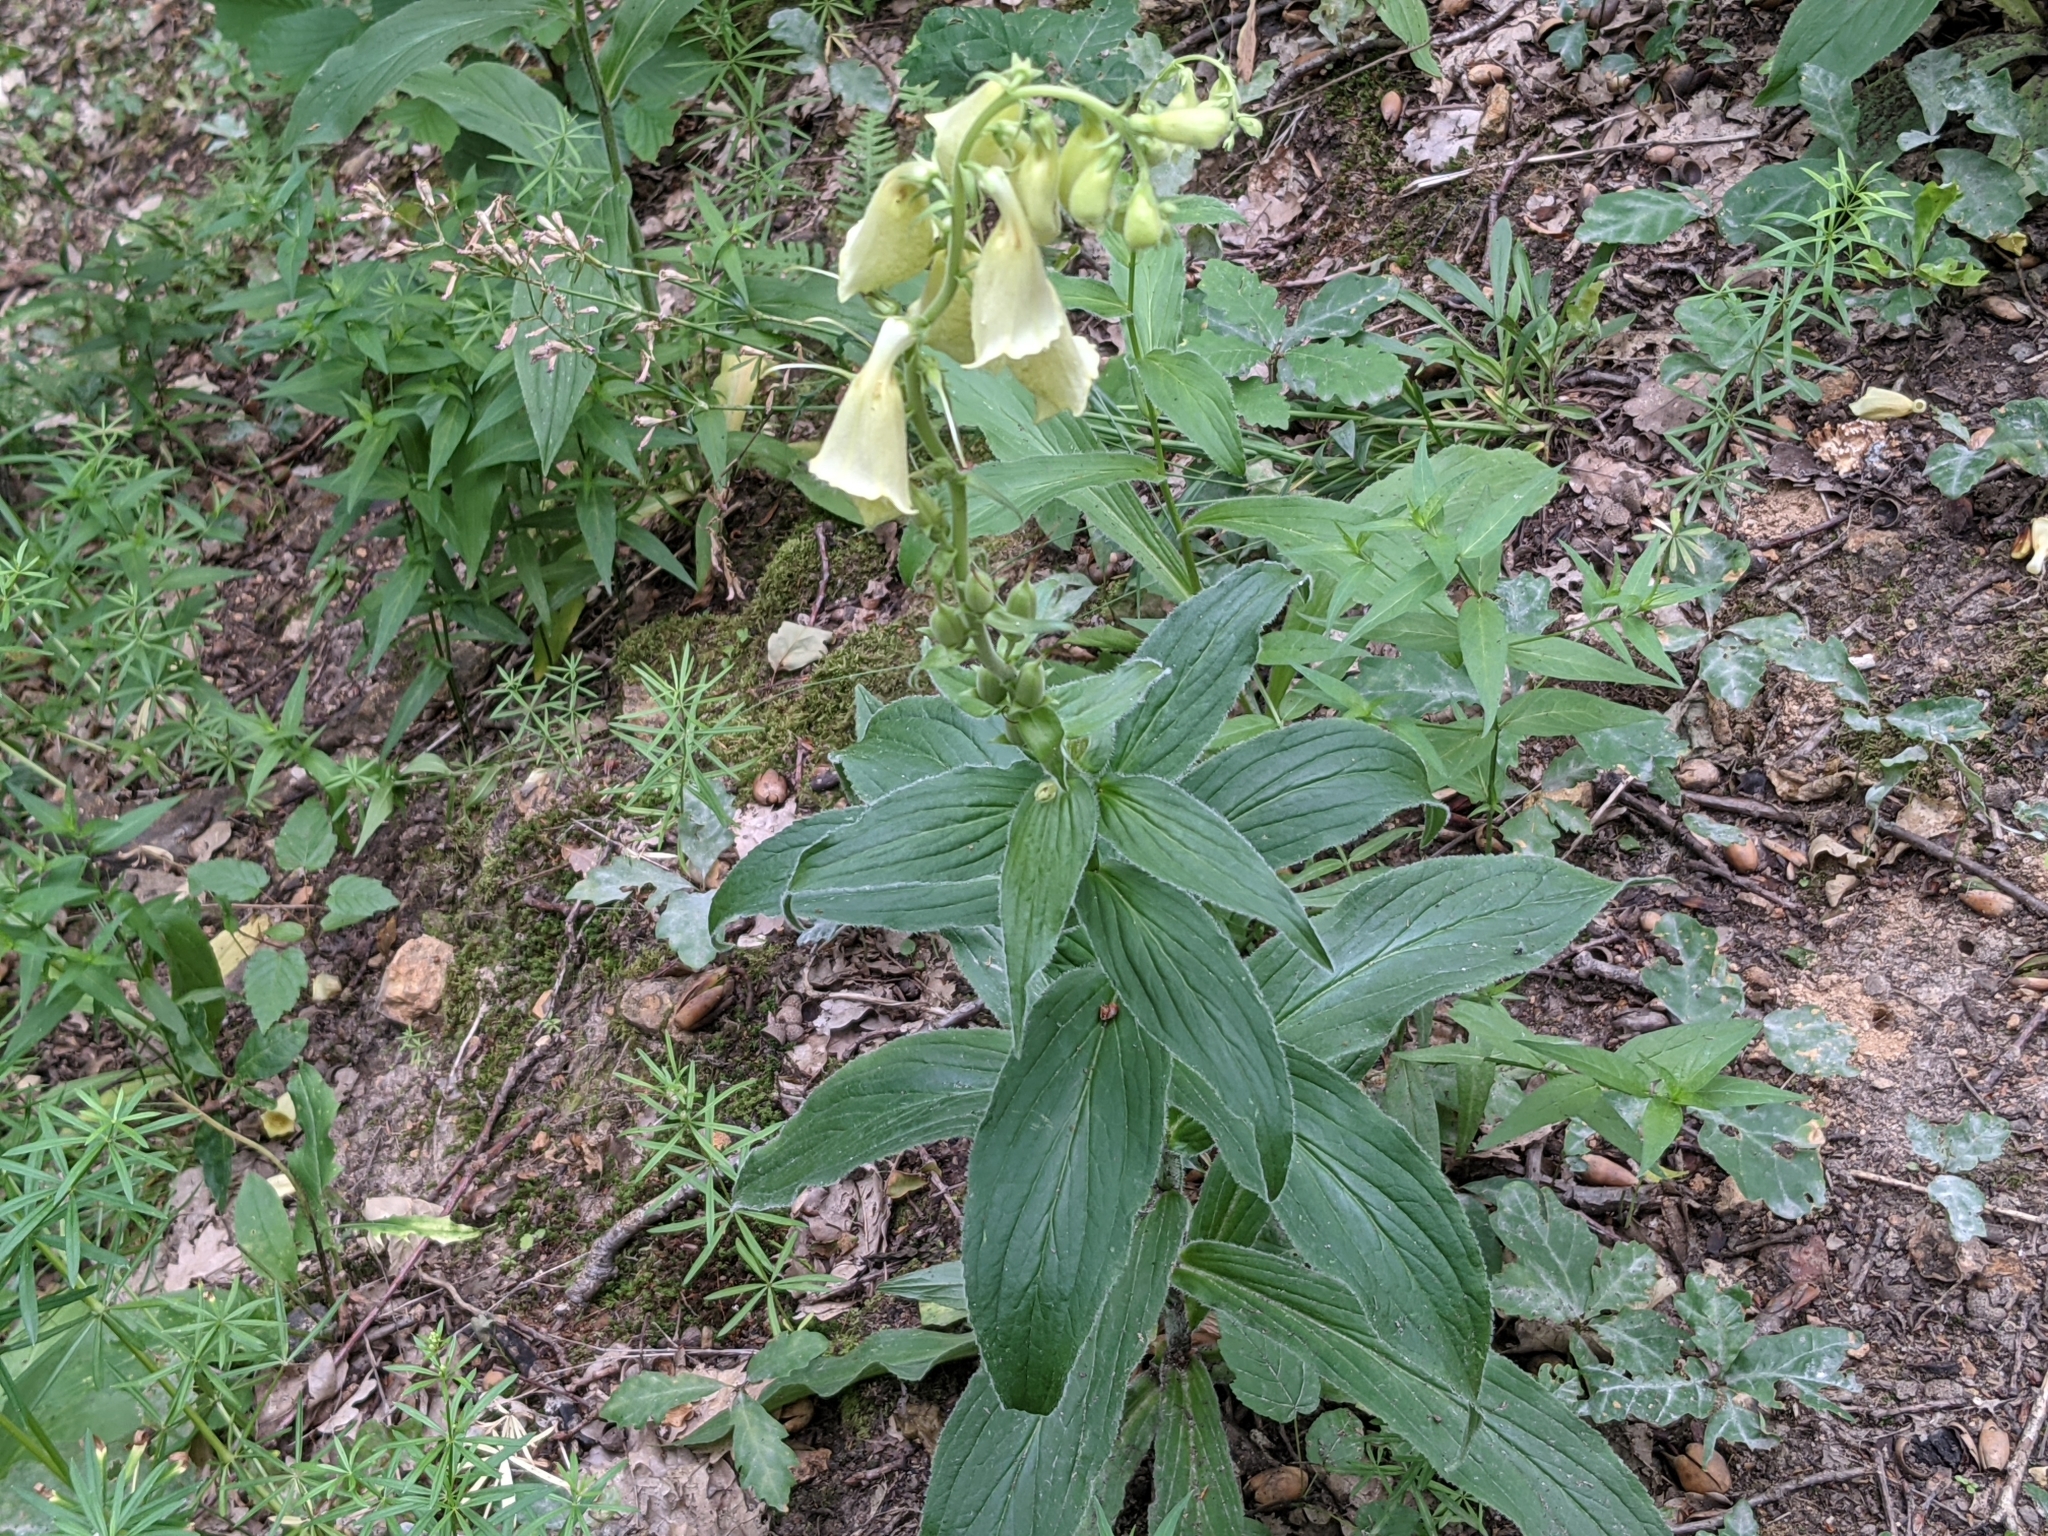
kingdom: Plantae
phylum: Tracheophyta
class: Magnoliopsida
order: Lamiales
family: Plantaginaceae
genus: Digitalis
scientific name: Digitalis grandiflora
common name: Yellow foxglove
